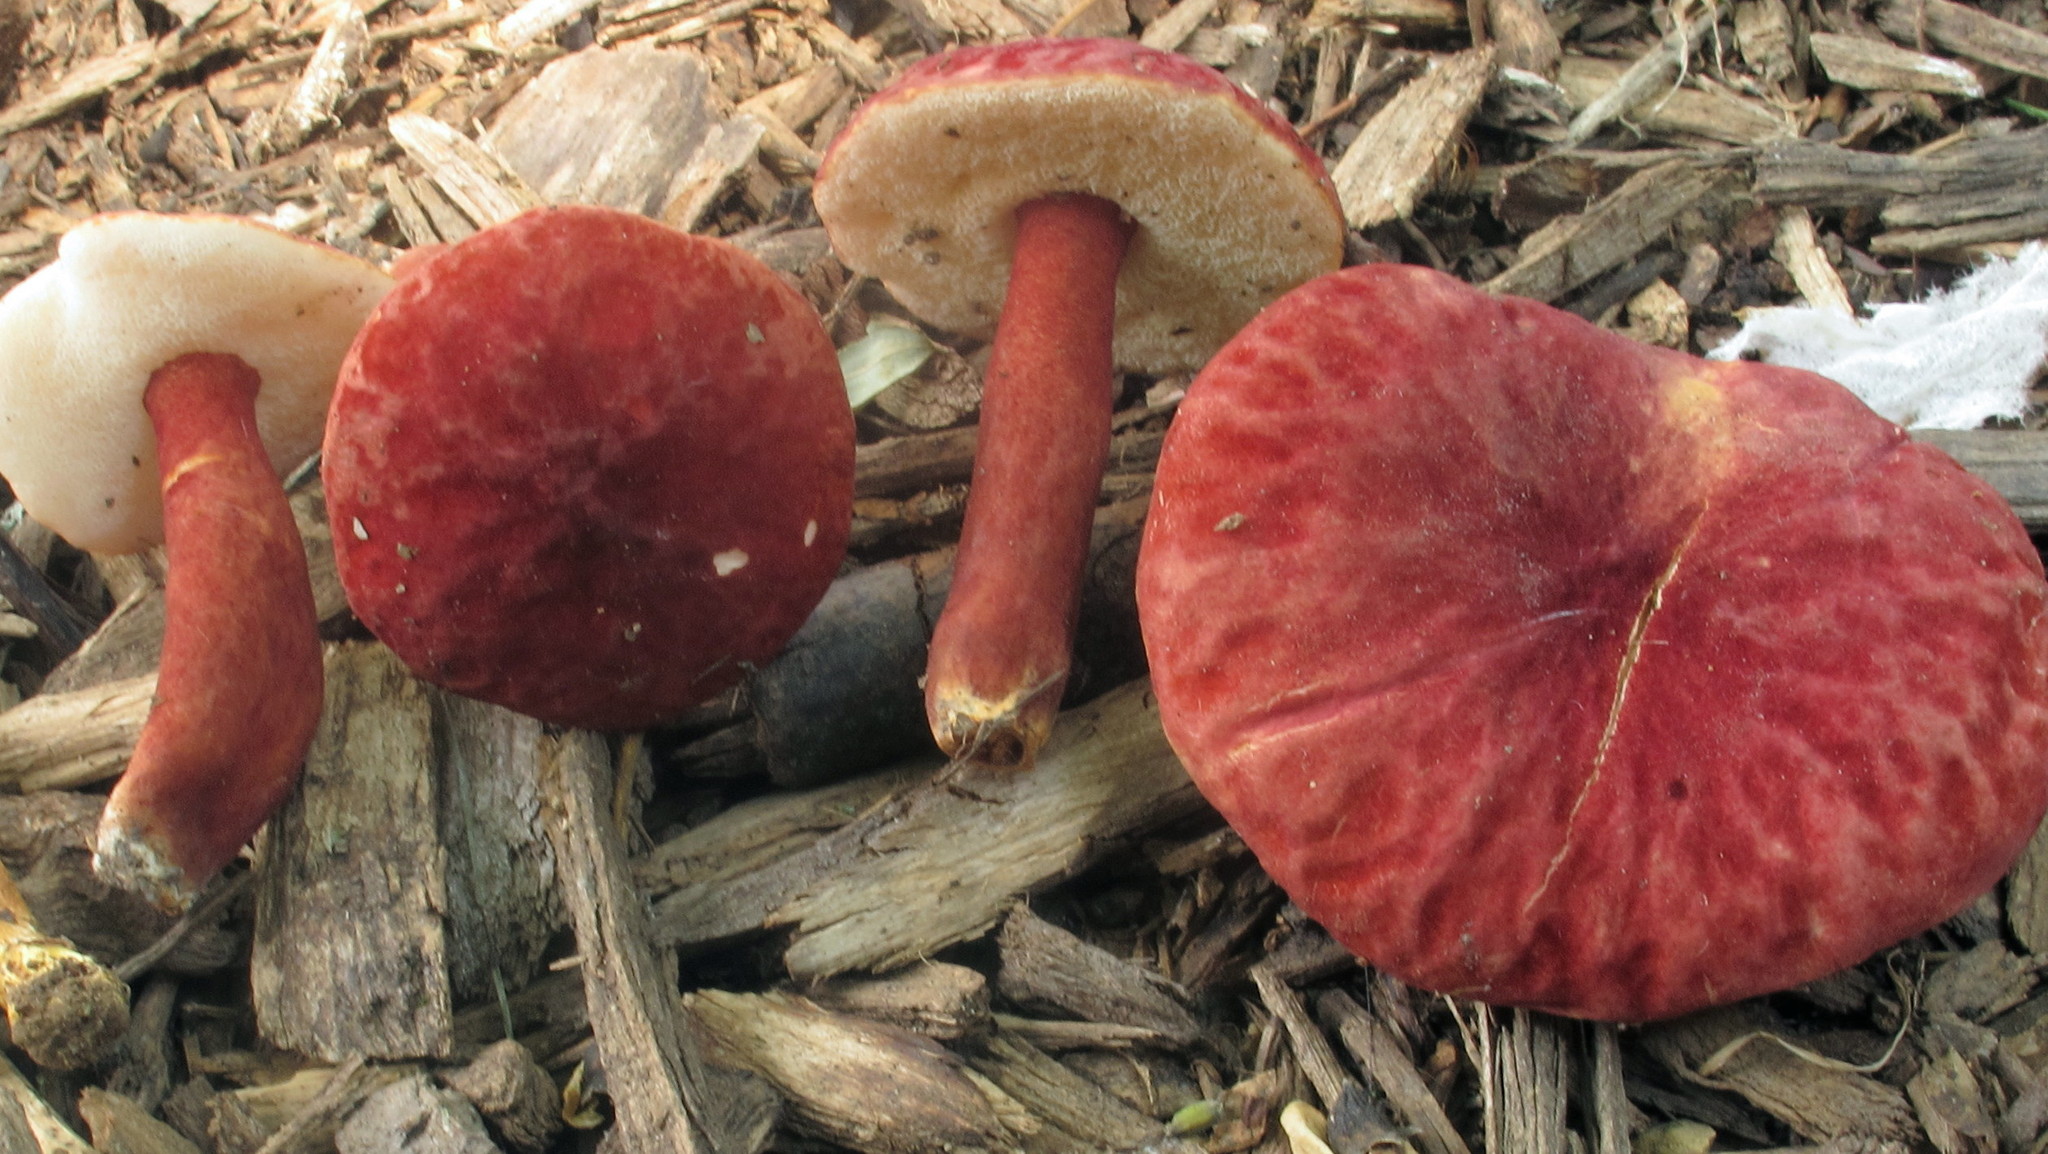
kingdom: Fungi
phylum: Basidiomycota
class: Agaricomycetes
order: Boletales
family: Gyroporaceae
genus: Gyroporus
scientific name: Gyroporus purpurinus
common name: Red gyroporus
